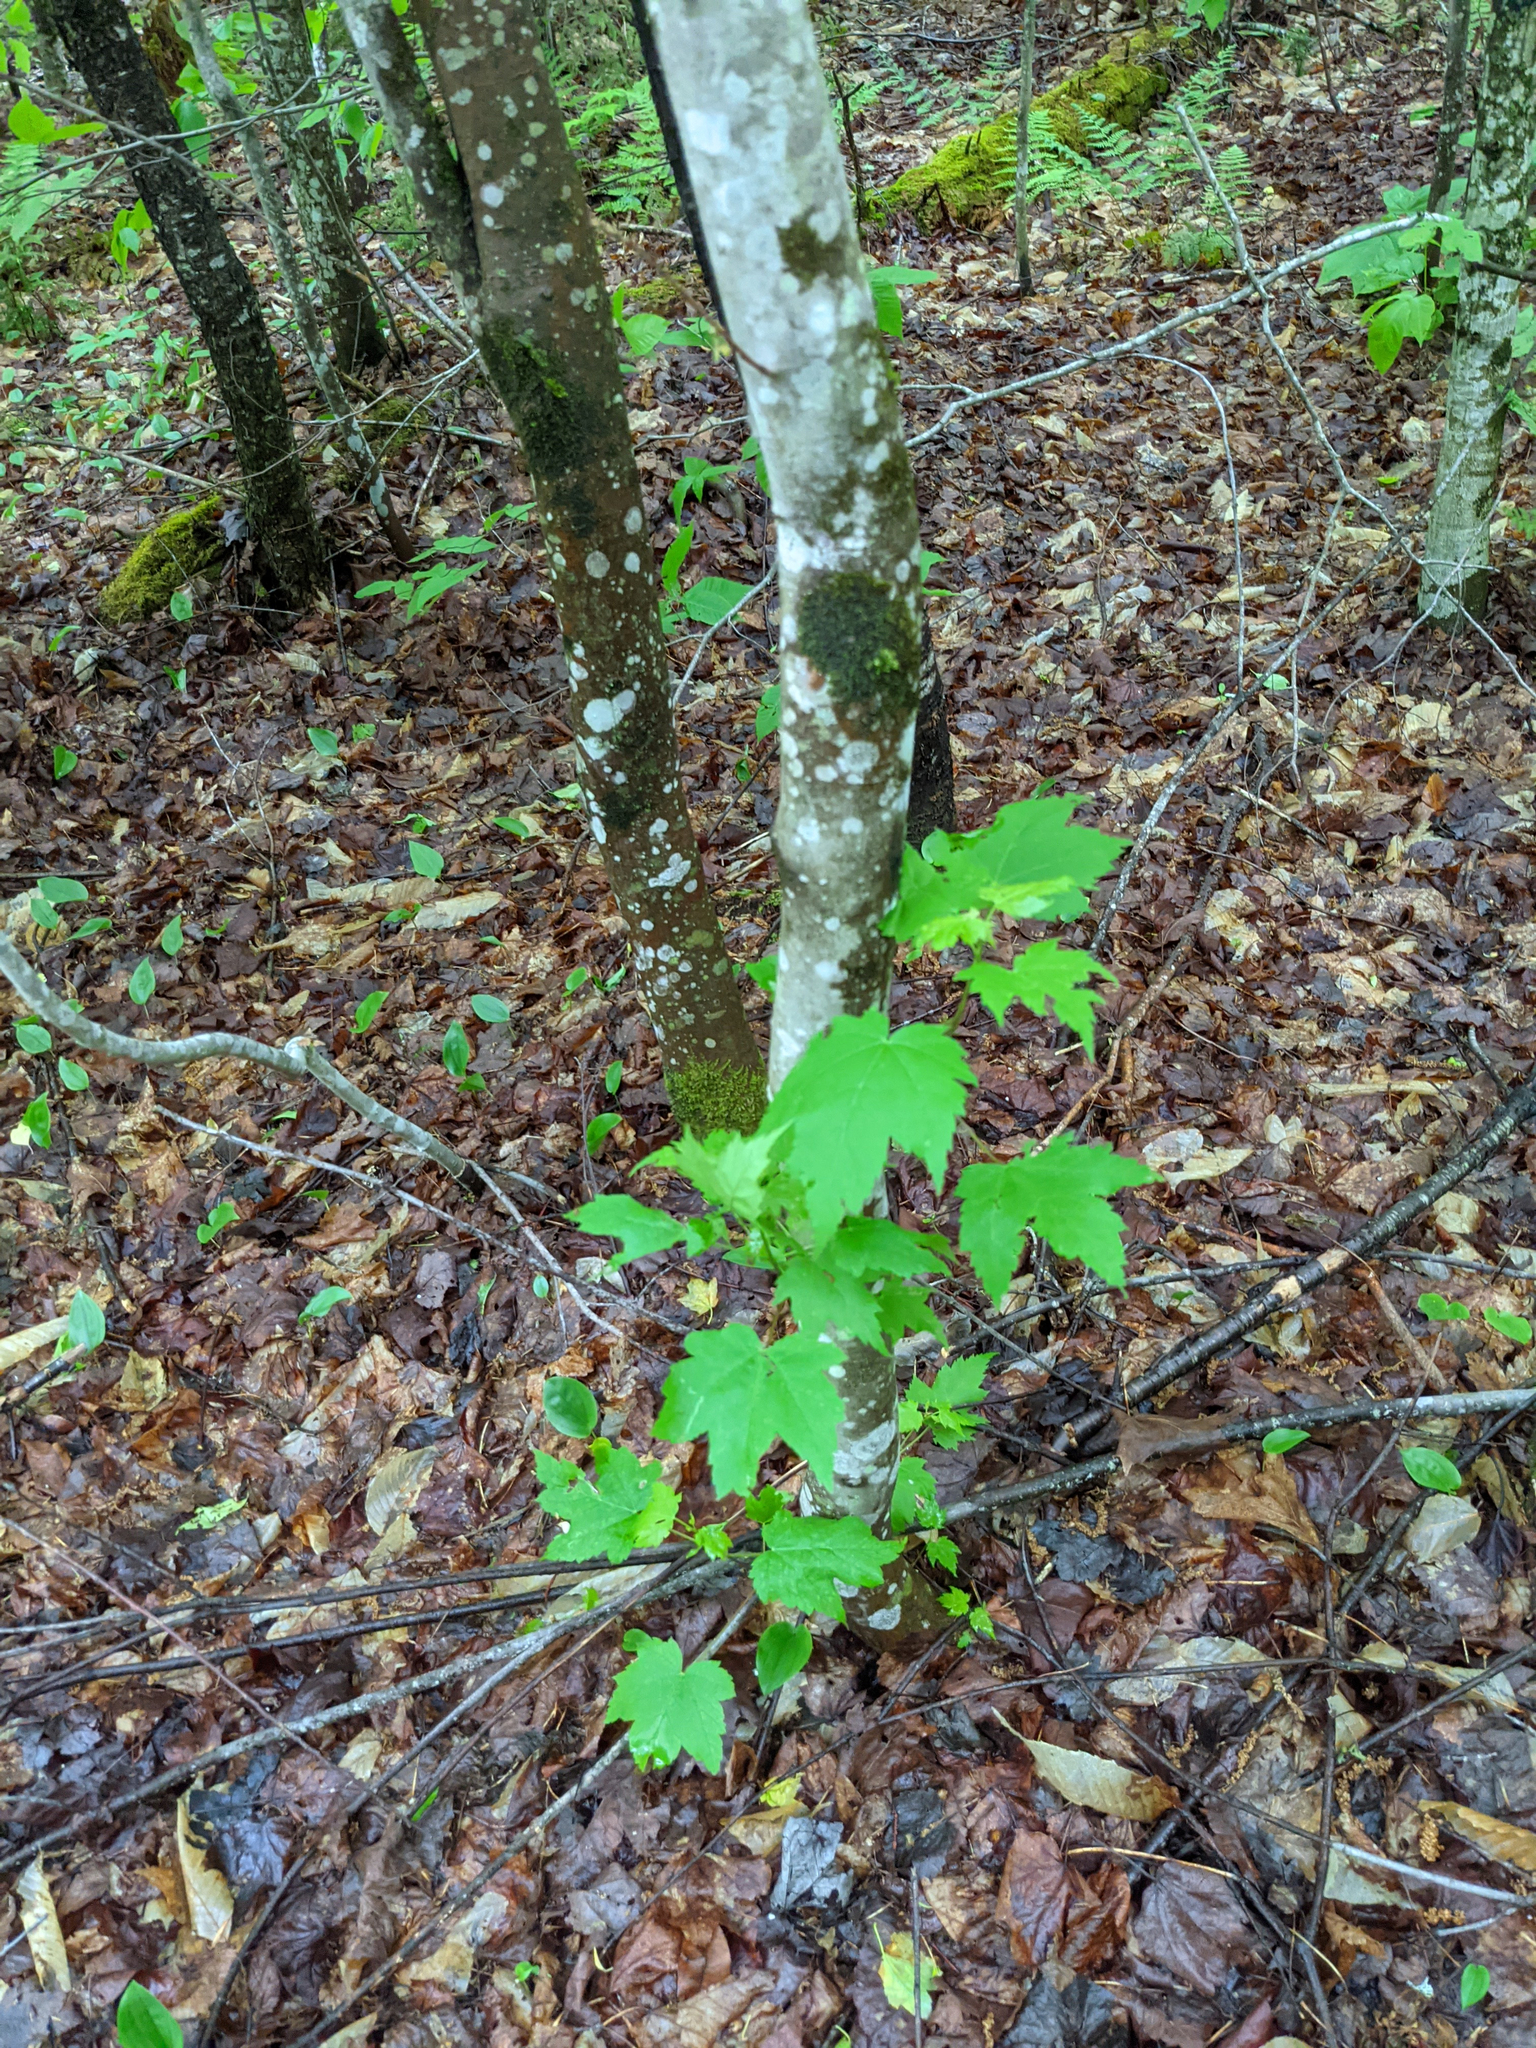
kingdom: Plantae
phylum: Tracheophyta
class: Magnoliopsida
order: Sapindales
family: Sapindaceae
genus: Acer
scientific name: Acer rubrum
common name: Red maple
